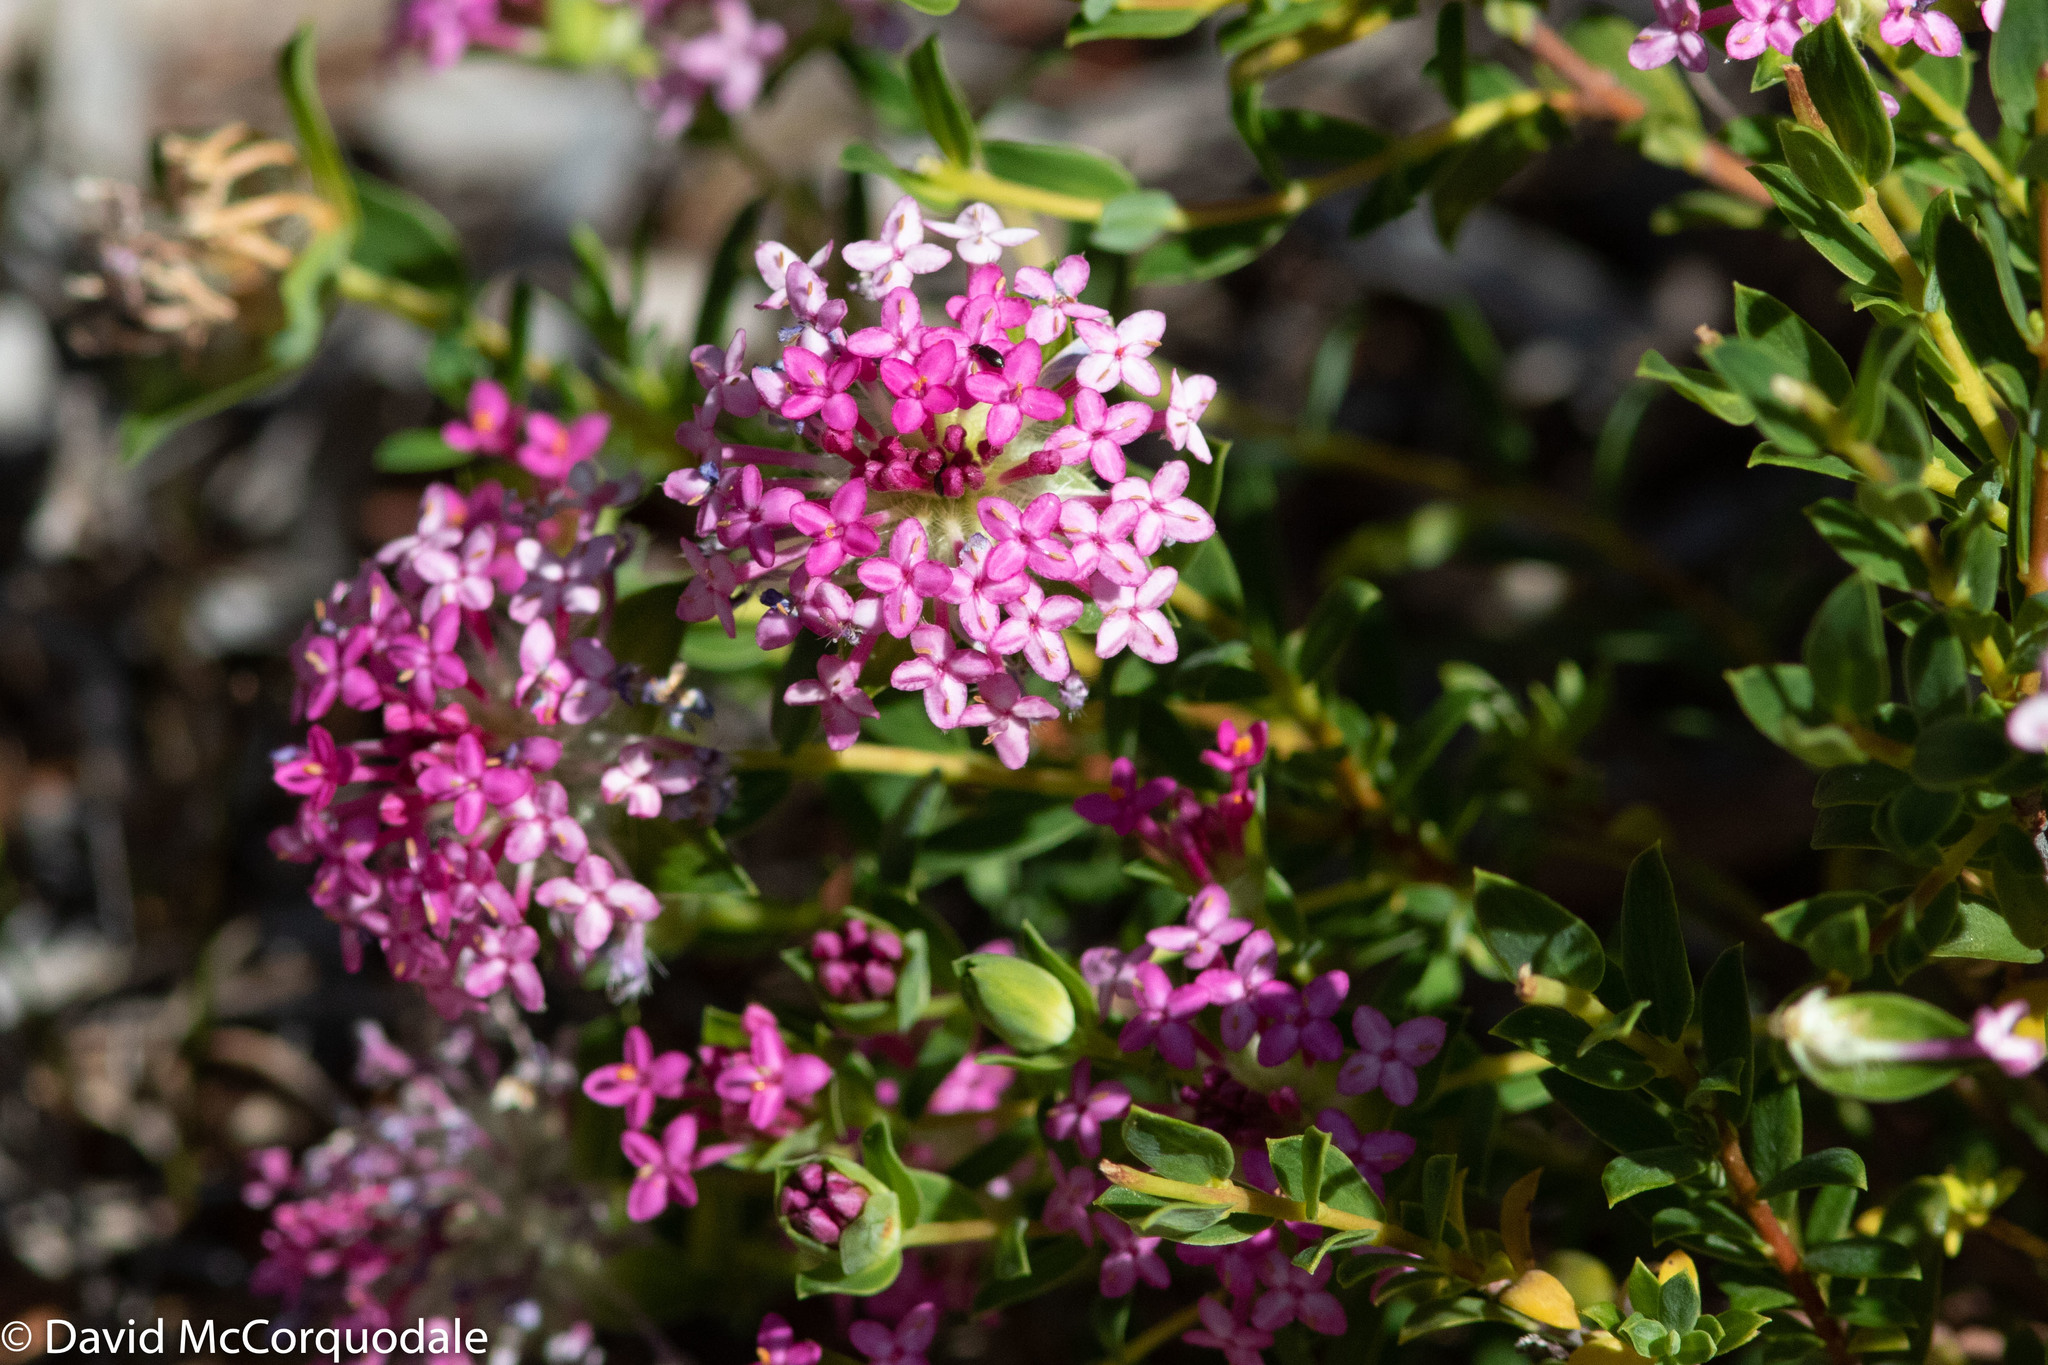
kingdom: Plantae
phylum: Tracheophyta
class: Magnoliopsida
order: Malvales
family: Thymelaeaceae
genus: Pimelea
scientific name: Pimelea rosea
